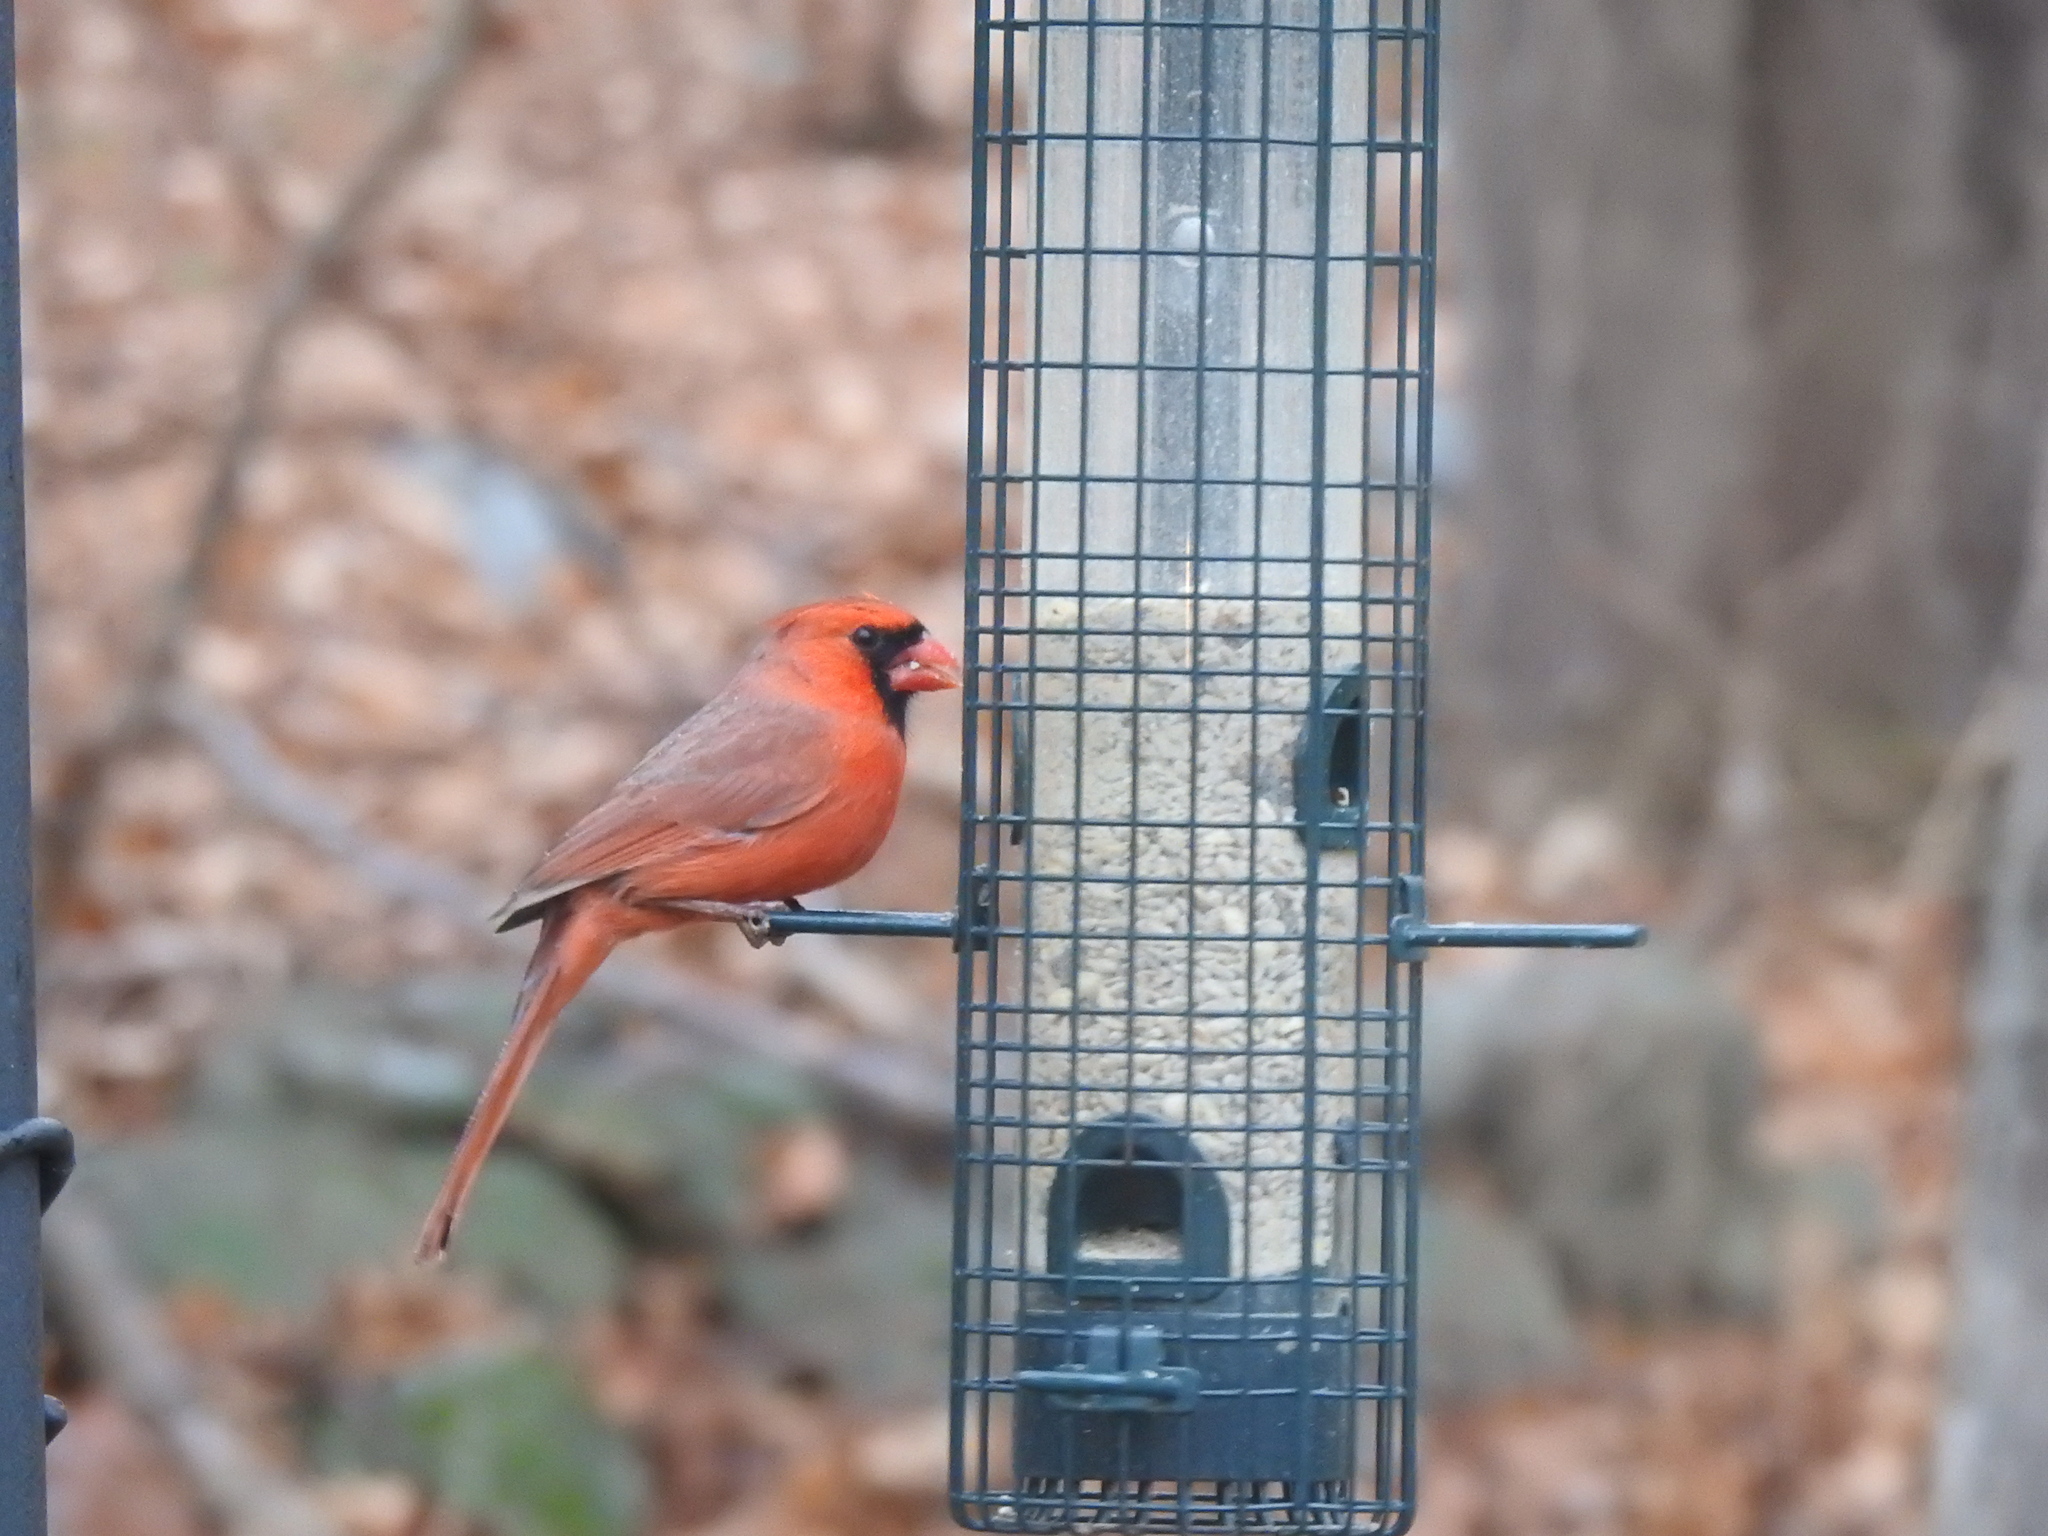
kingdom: Animalia
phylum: Chordata
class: Aves
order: Passeriformes
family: Cardinalidae
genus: Cardinalis
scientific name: Cardinalis cardinalis
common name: Northern cardinal
